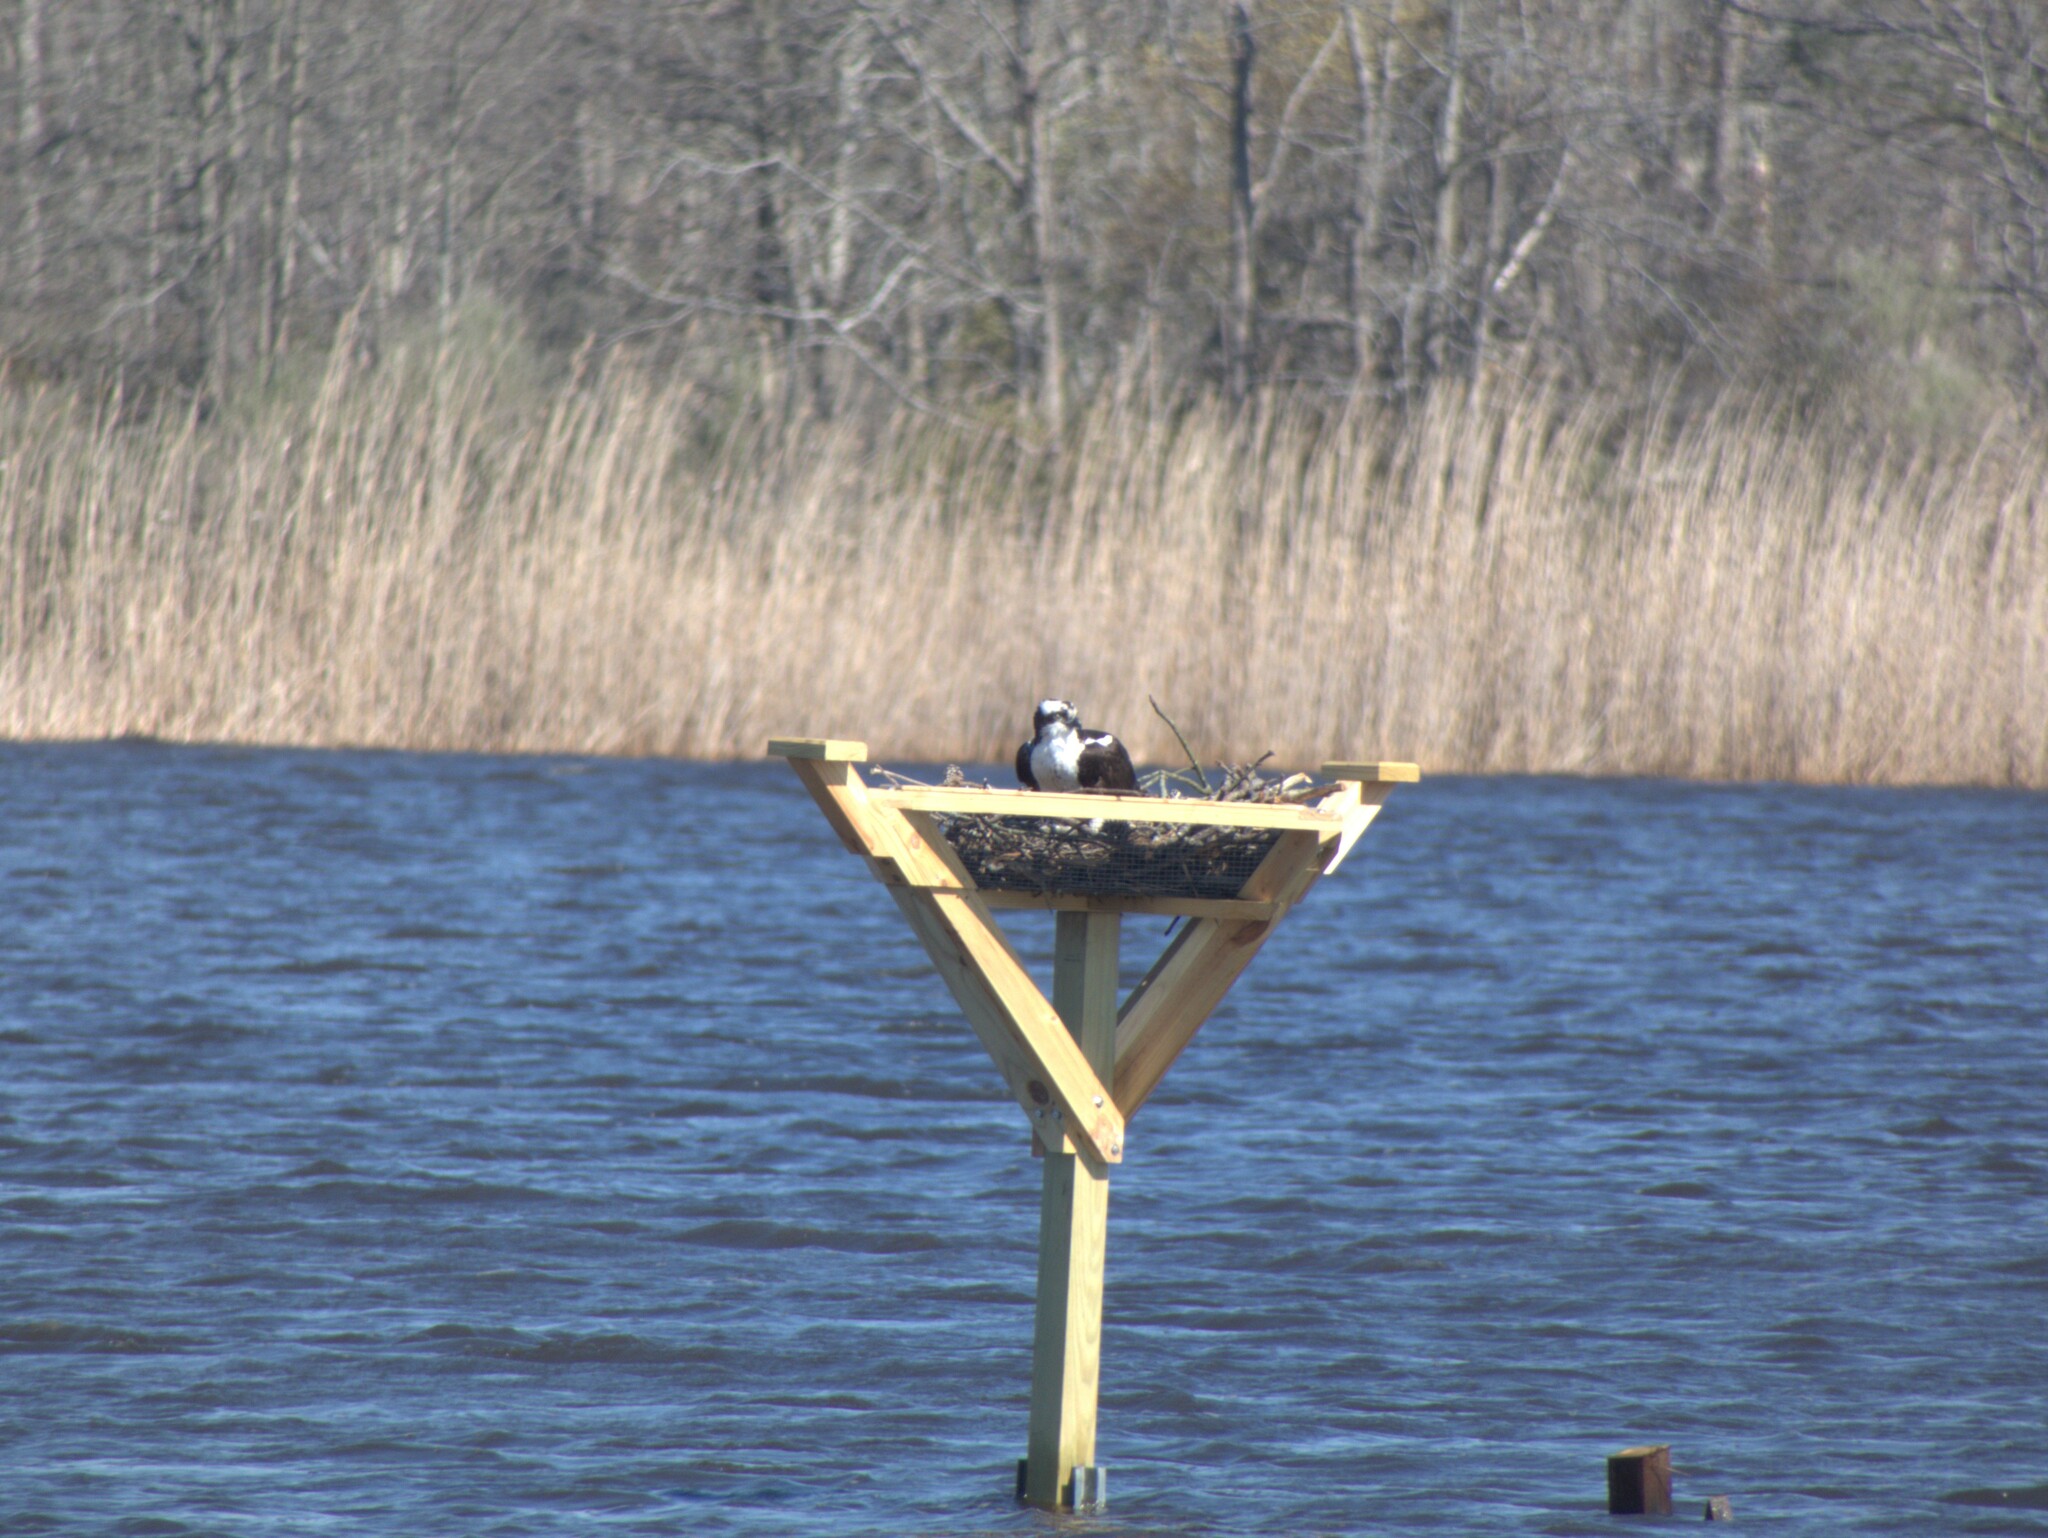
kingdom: Animalia
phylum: Chordata
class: Aves
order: Accipitriformes
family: Pandionidae
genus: Pandion
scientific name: Pandion haliaetus
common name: Osprey
